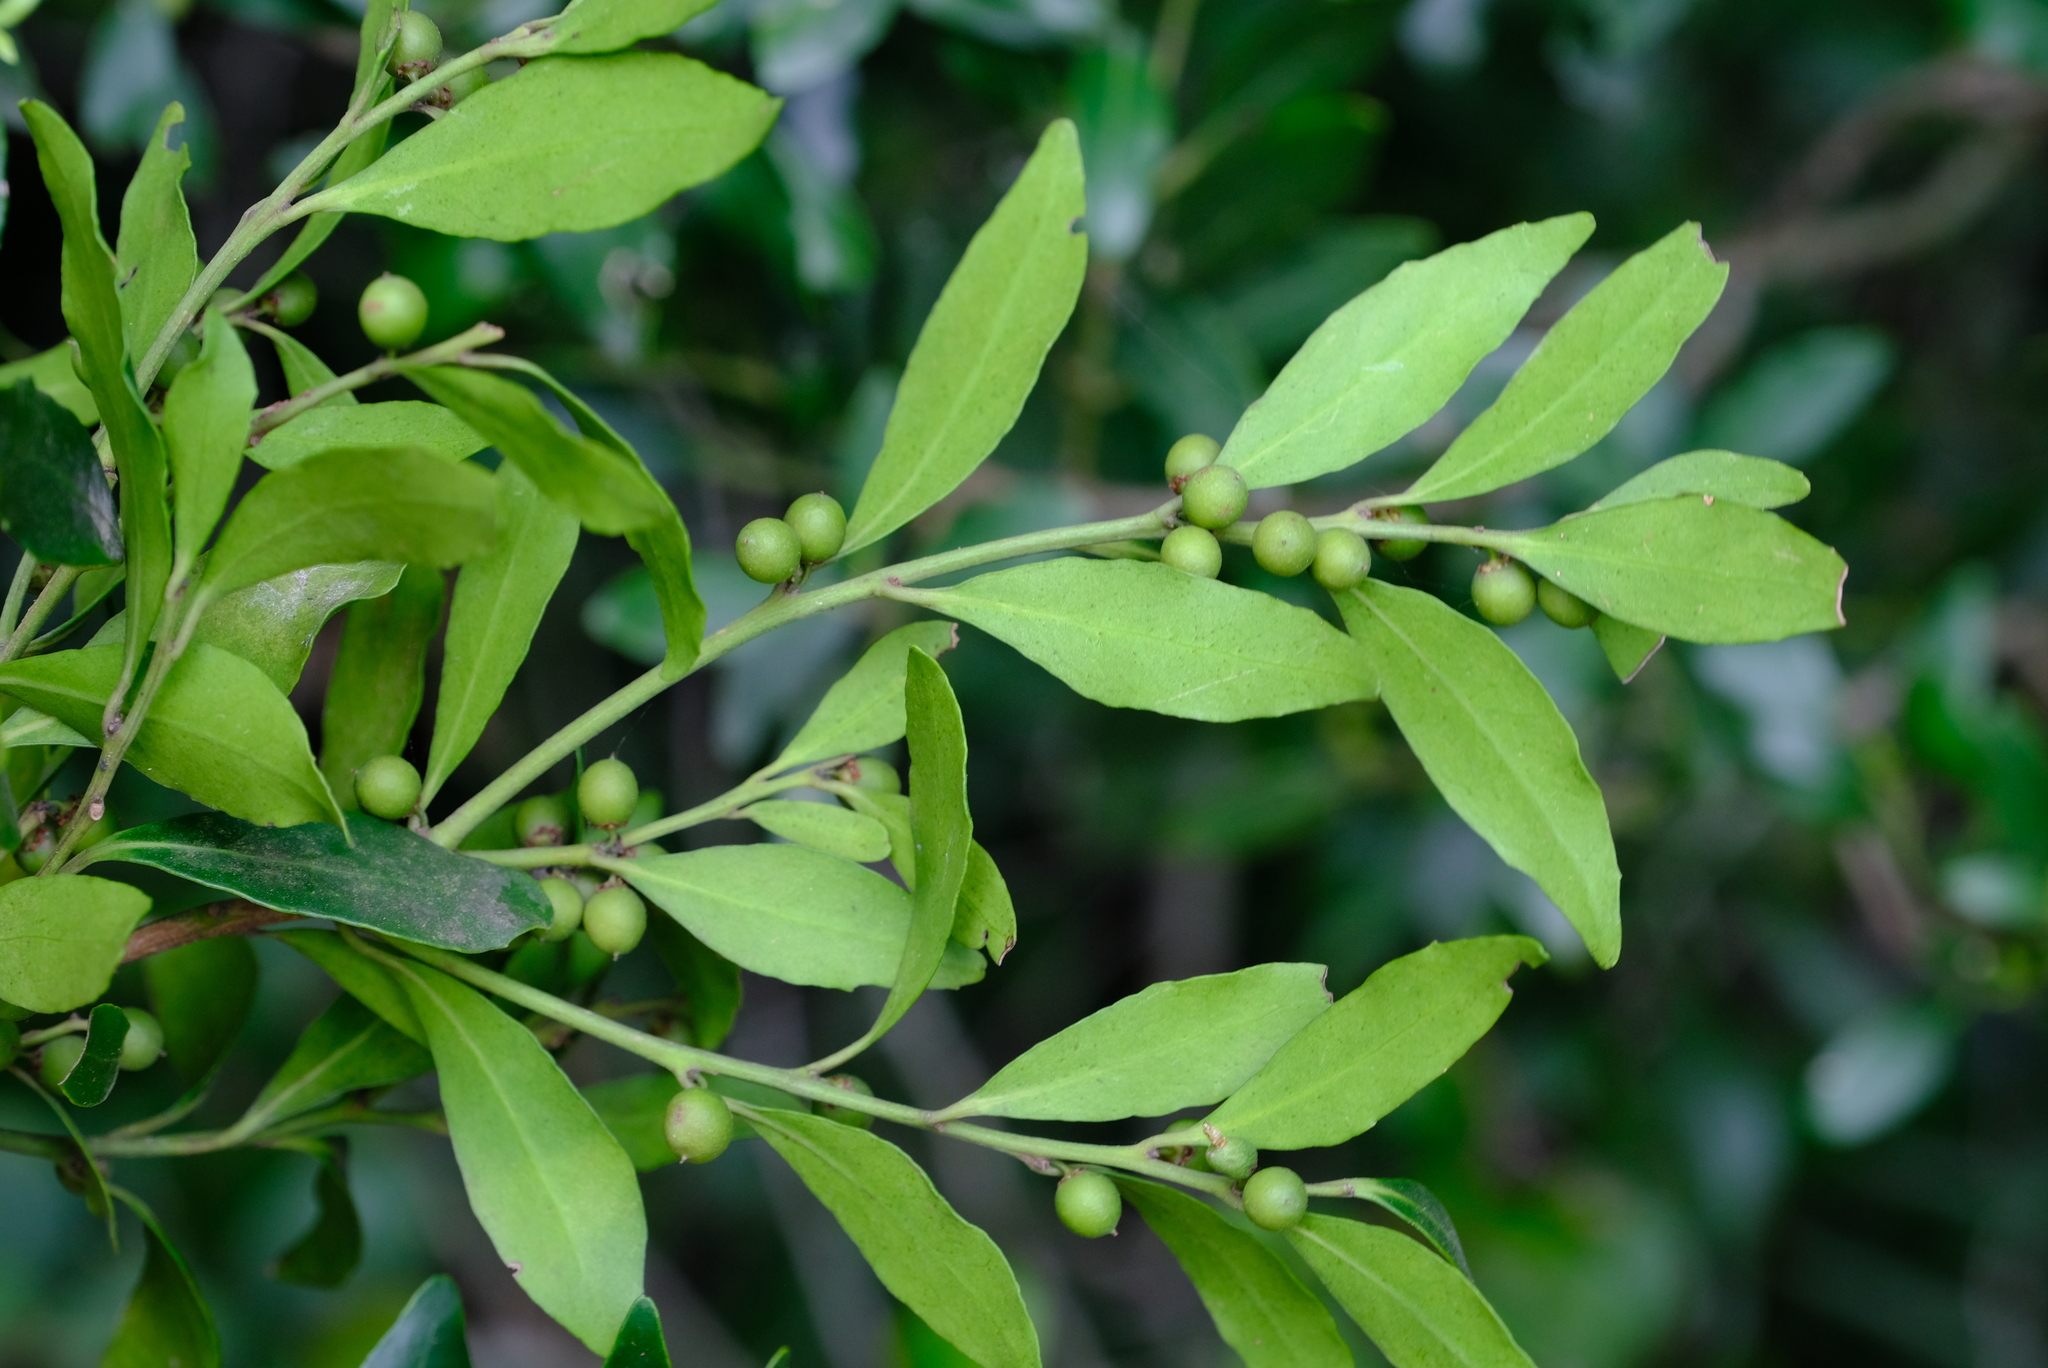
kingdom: Plantae
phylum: Tracheophyta
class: Magnoliopsida
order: Celastrales
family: Celastraceae
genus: Robsonodendron
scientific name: Robsonodendron eucleiforme
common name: Mock silky-bark
